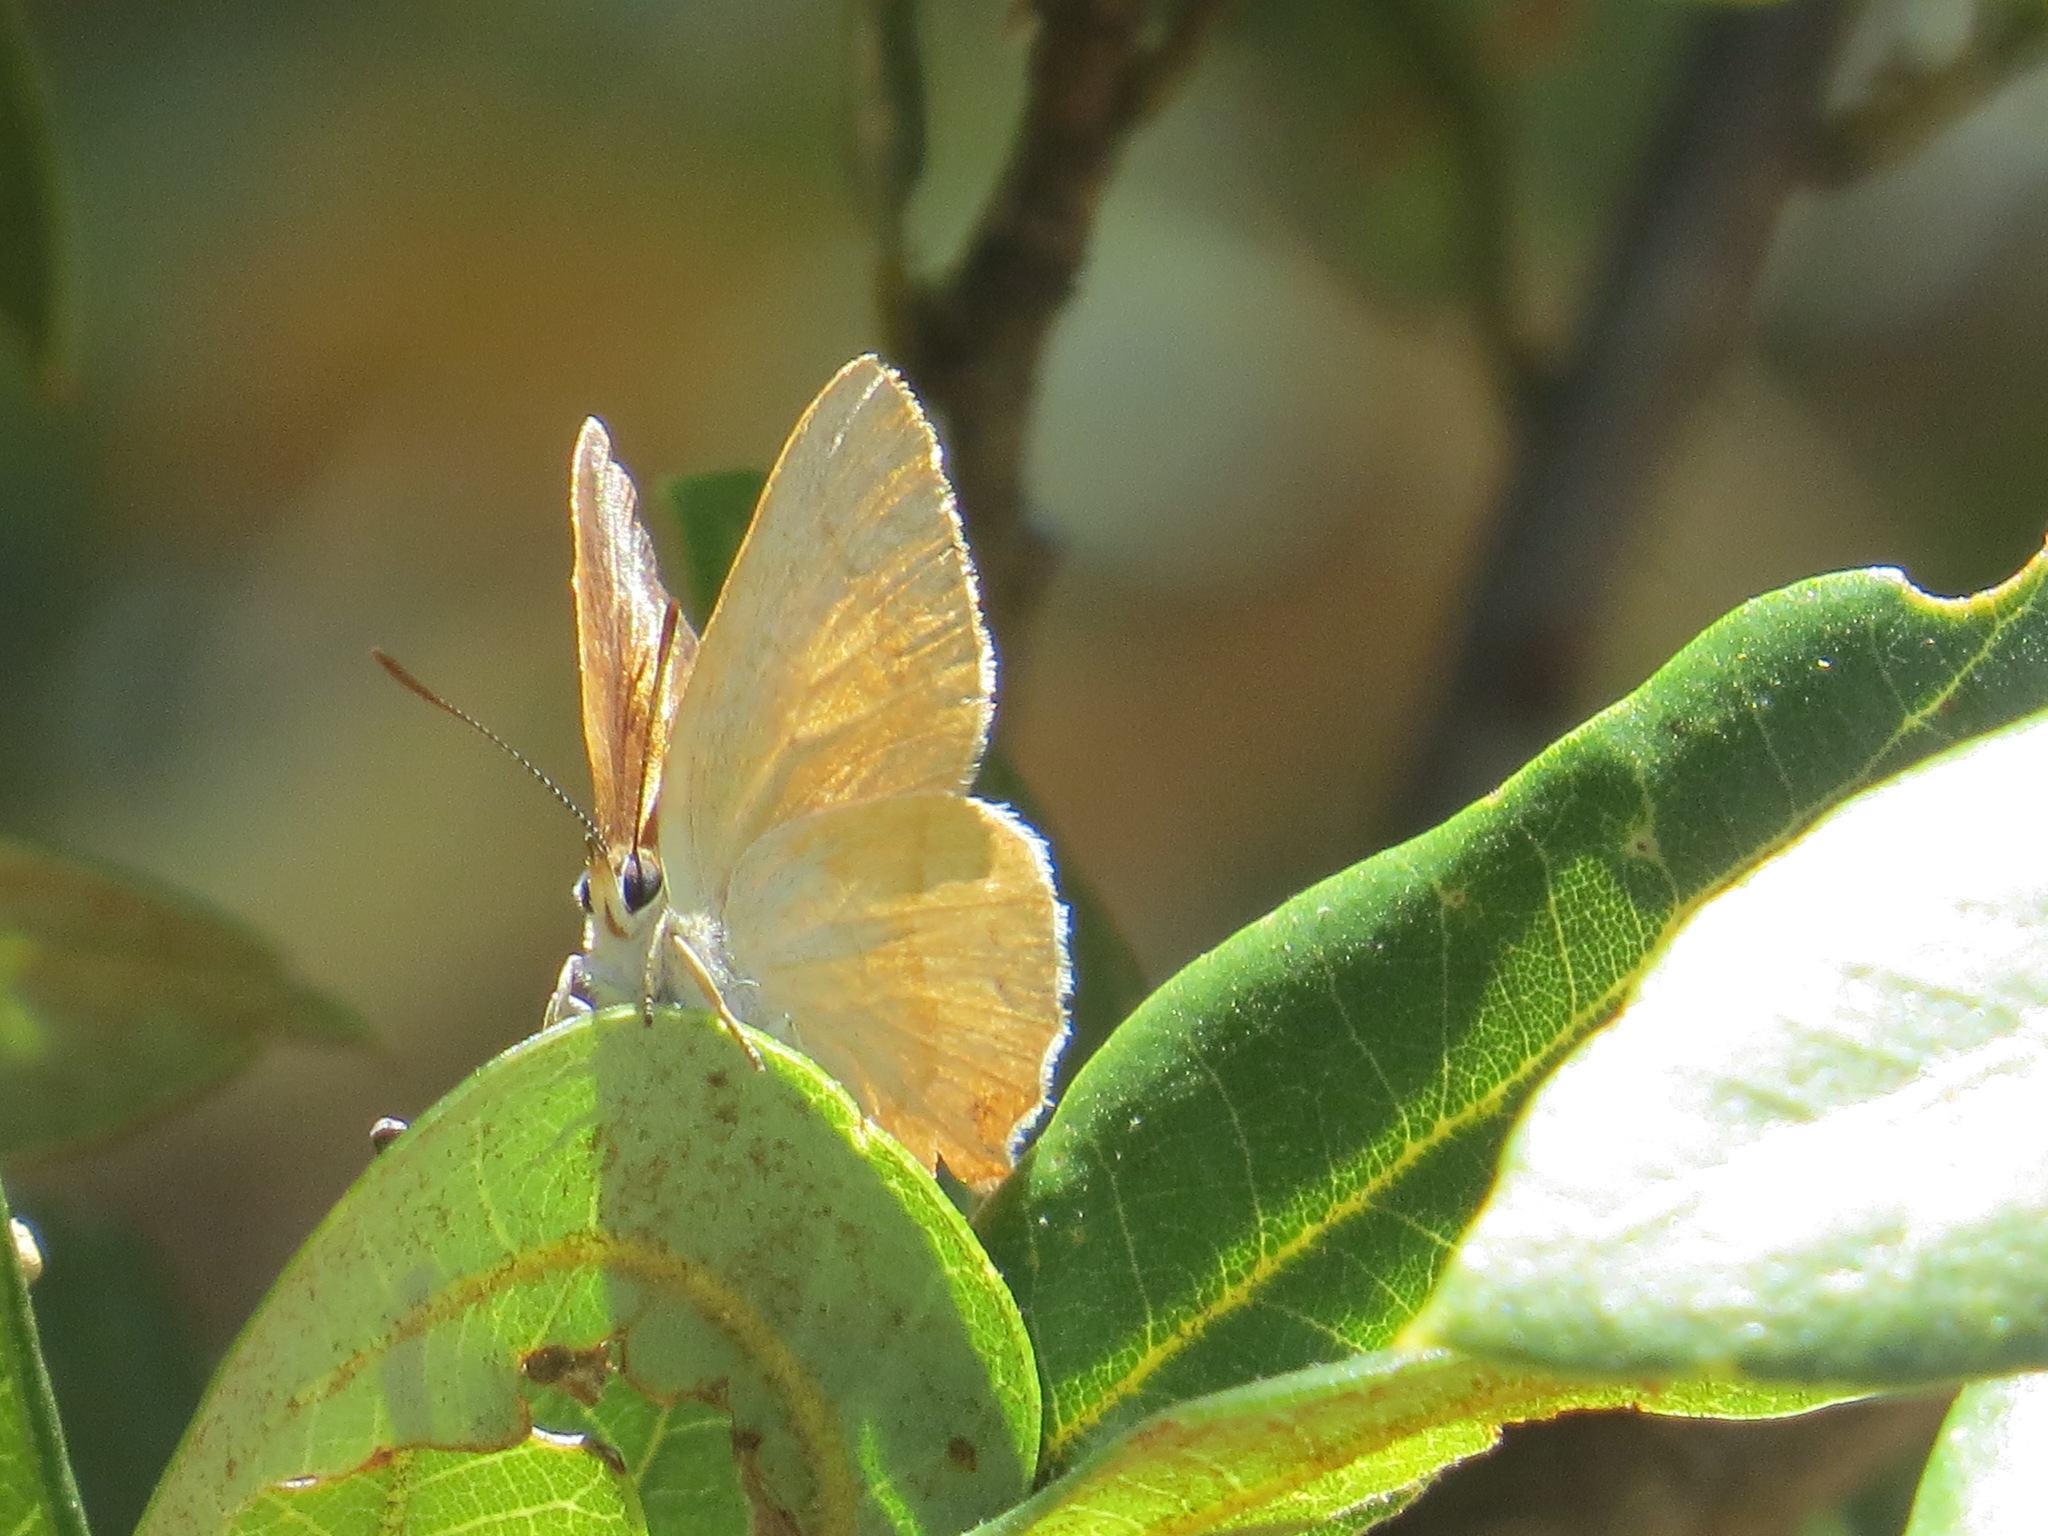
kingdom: Animalia
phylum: Arthropoda
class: Insecta
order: Lepidoptera
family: Lycaenidae
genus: Habrodais
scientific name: Habrodais grunus
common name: Golden hairstreak
